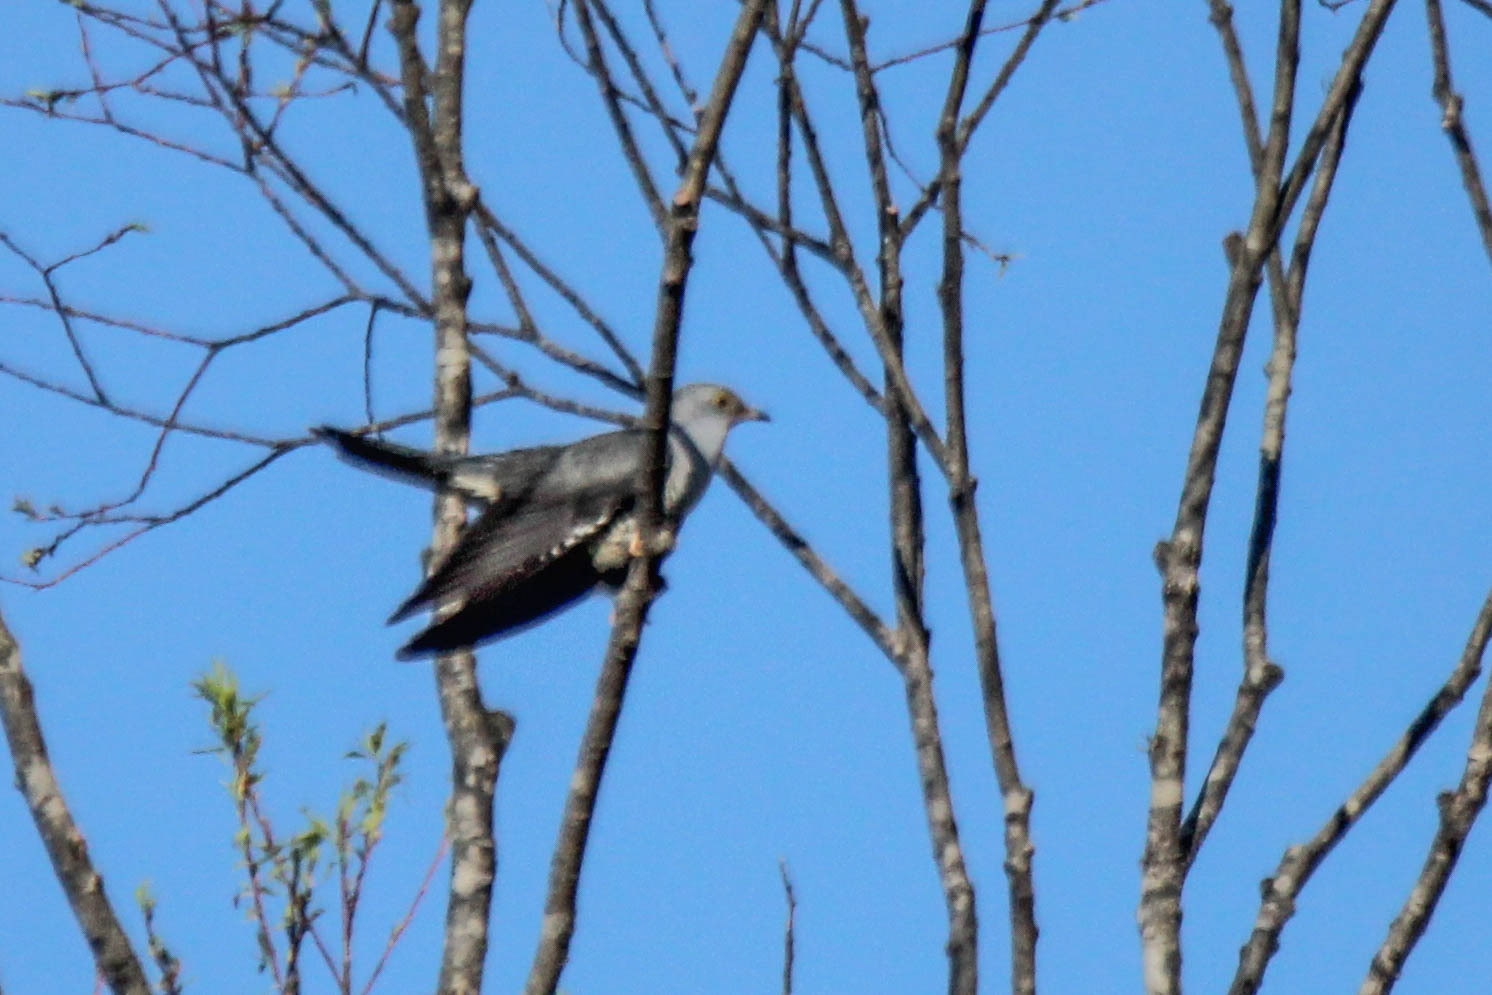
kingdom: Animalia
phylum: Chordata
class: Aves
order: Cuculiformes
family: Cuculidae
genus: Cuculus
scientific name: Cuculus optatus
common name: Oriental cuckoo
